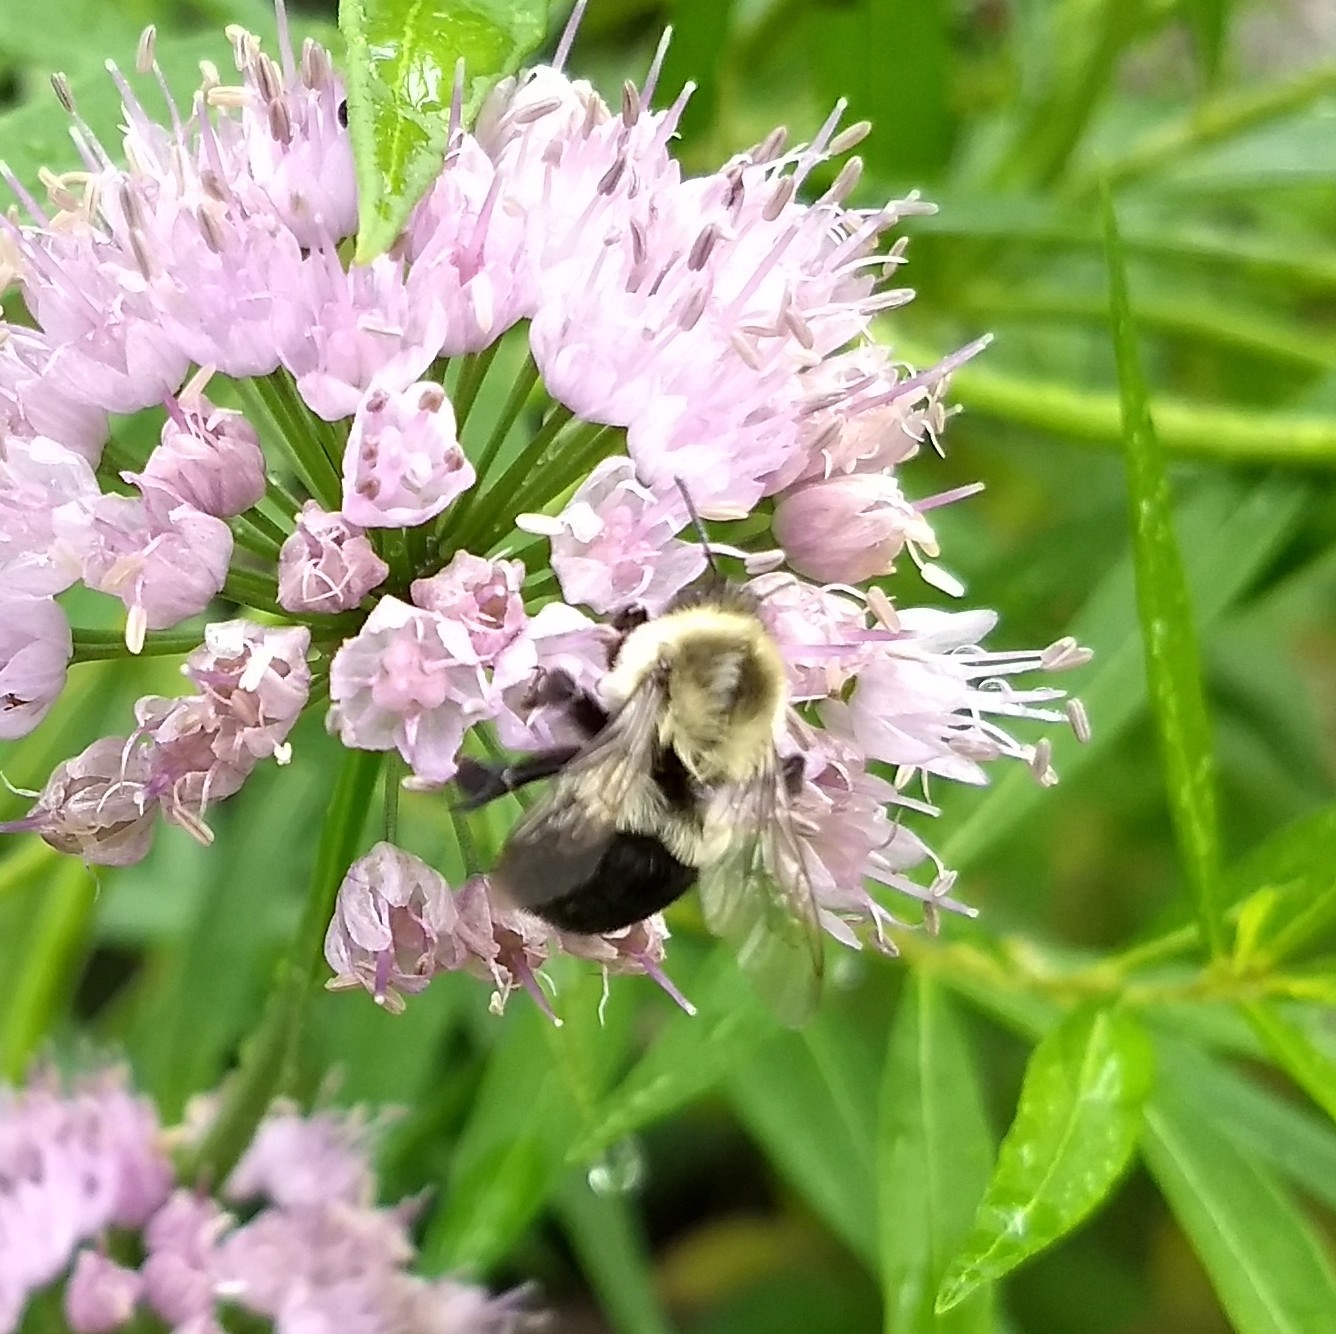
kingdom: Animalia
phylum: Arthropoda
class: Insecta
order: Hymenoptera
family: Apidae
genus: Bombus
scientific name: Bombus impatiens
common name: Common eastern bumble bee
